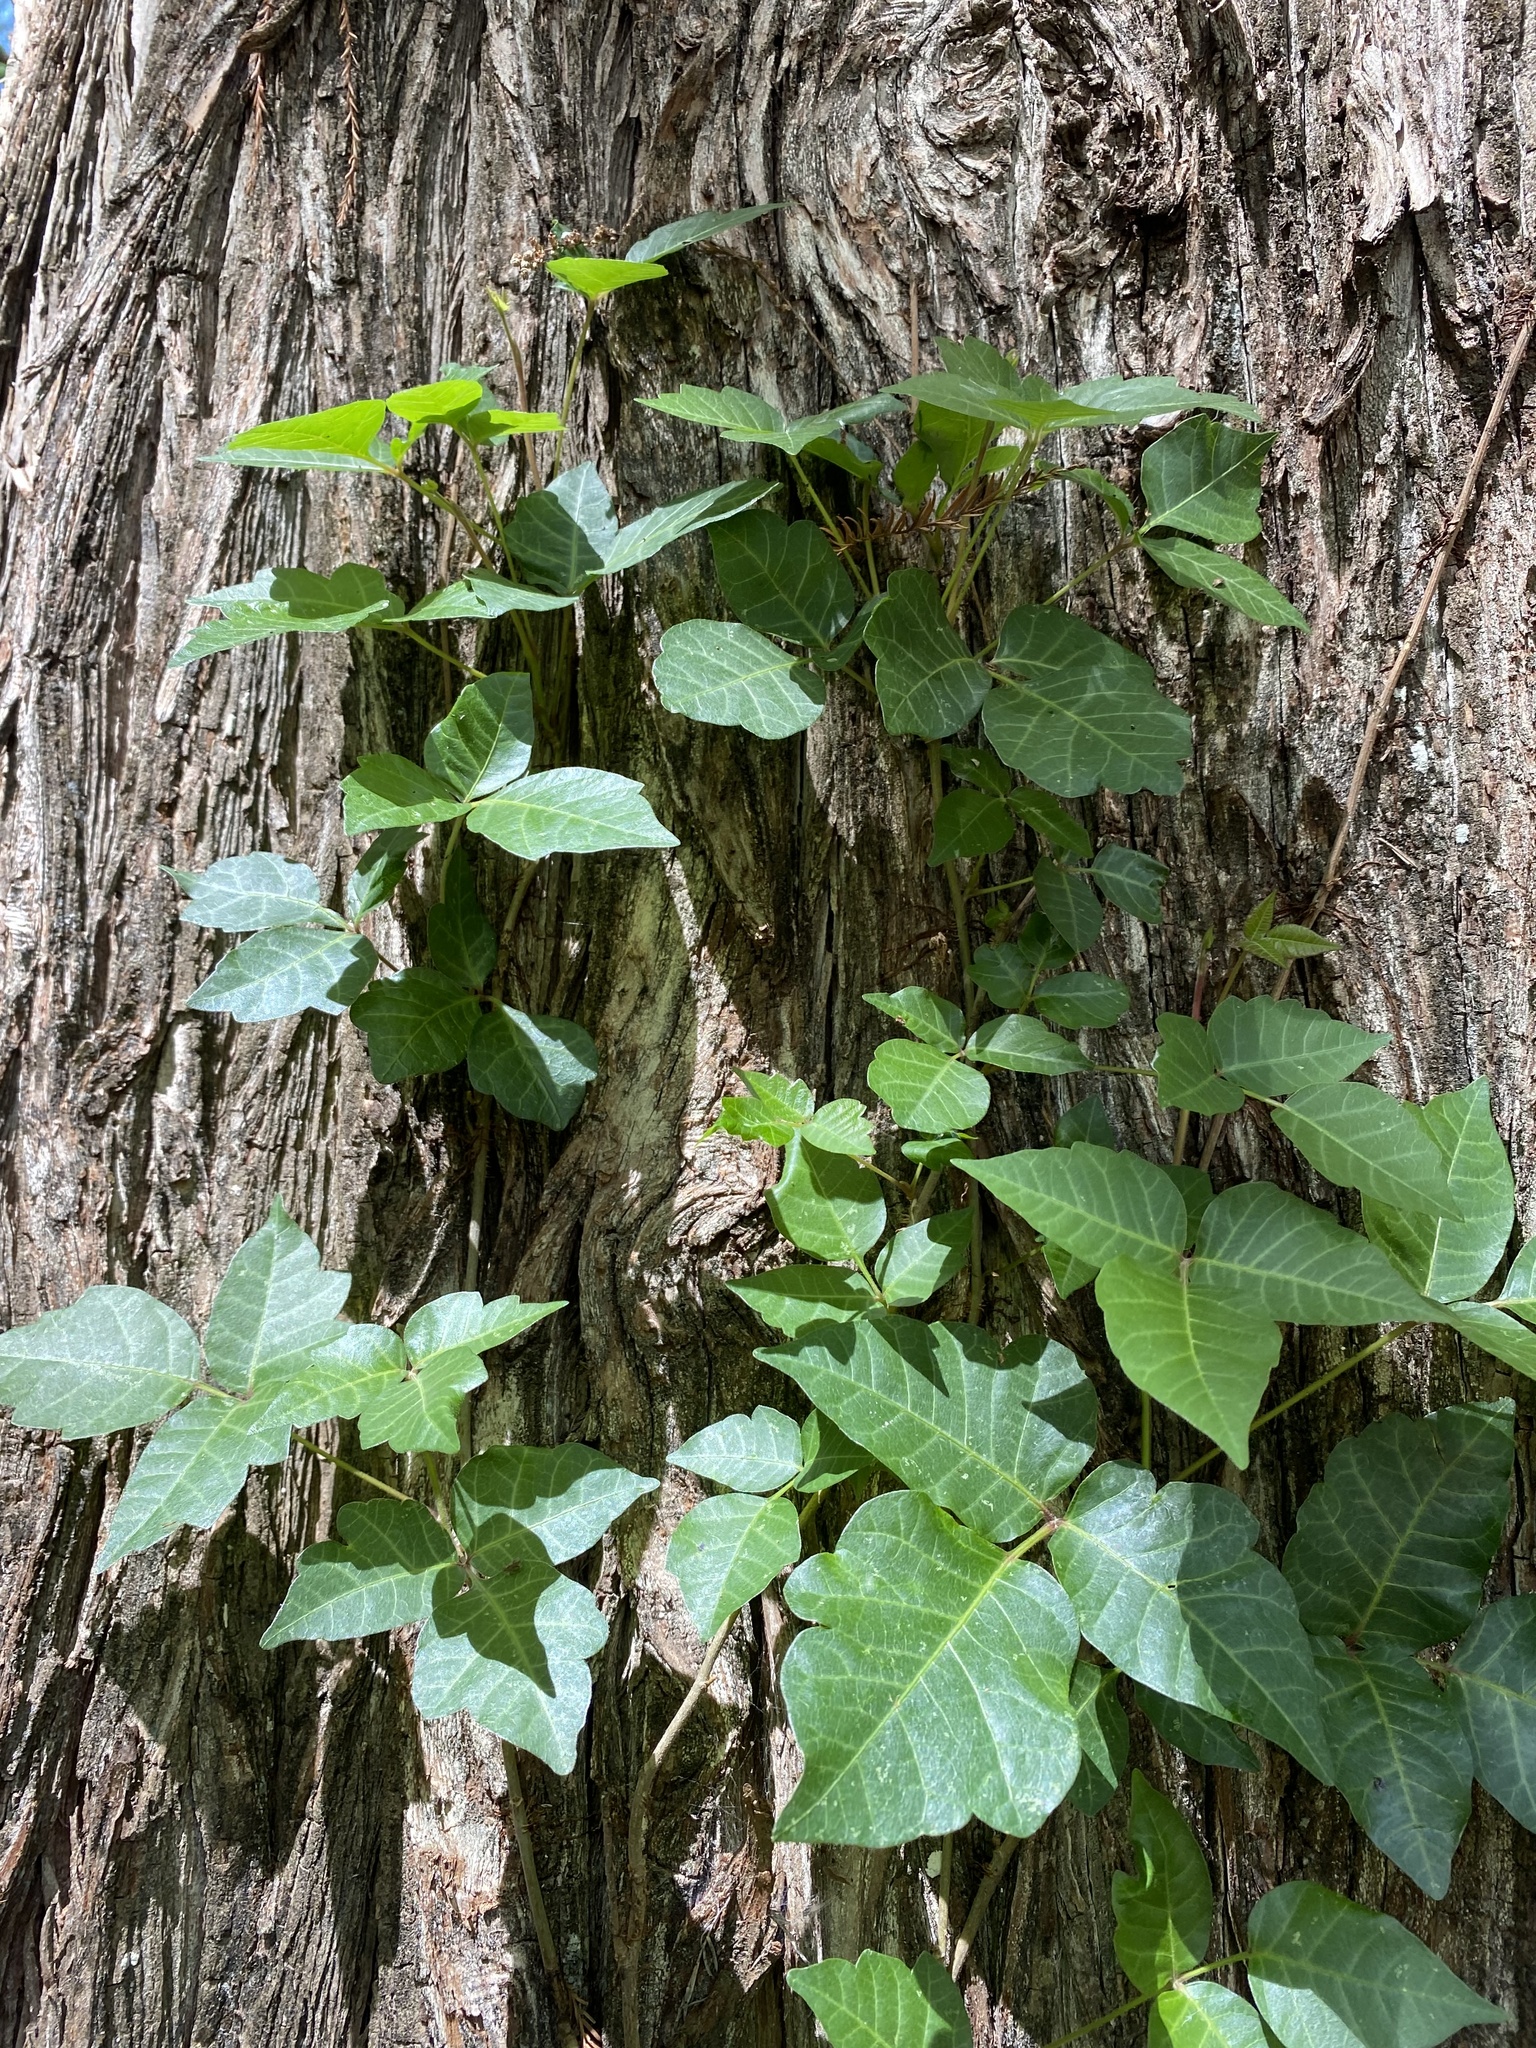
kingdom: Plantae
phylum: Tracheophyta
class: Magnoliopsida
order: Sapindales
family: Anacardiaceae
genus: Toxicodendron
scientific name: Toxicodendron radicans
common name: Poison ivy
